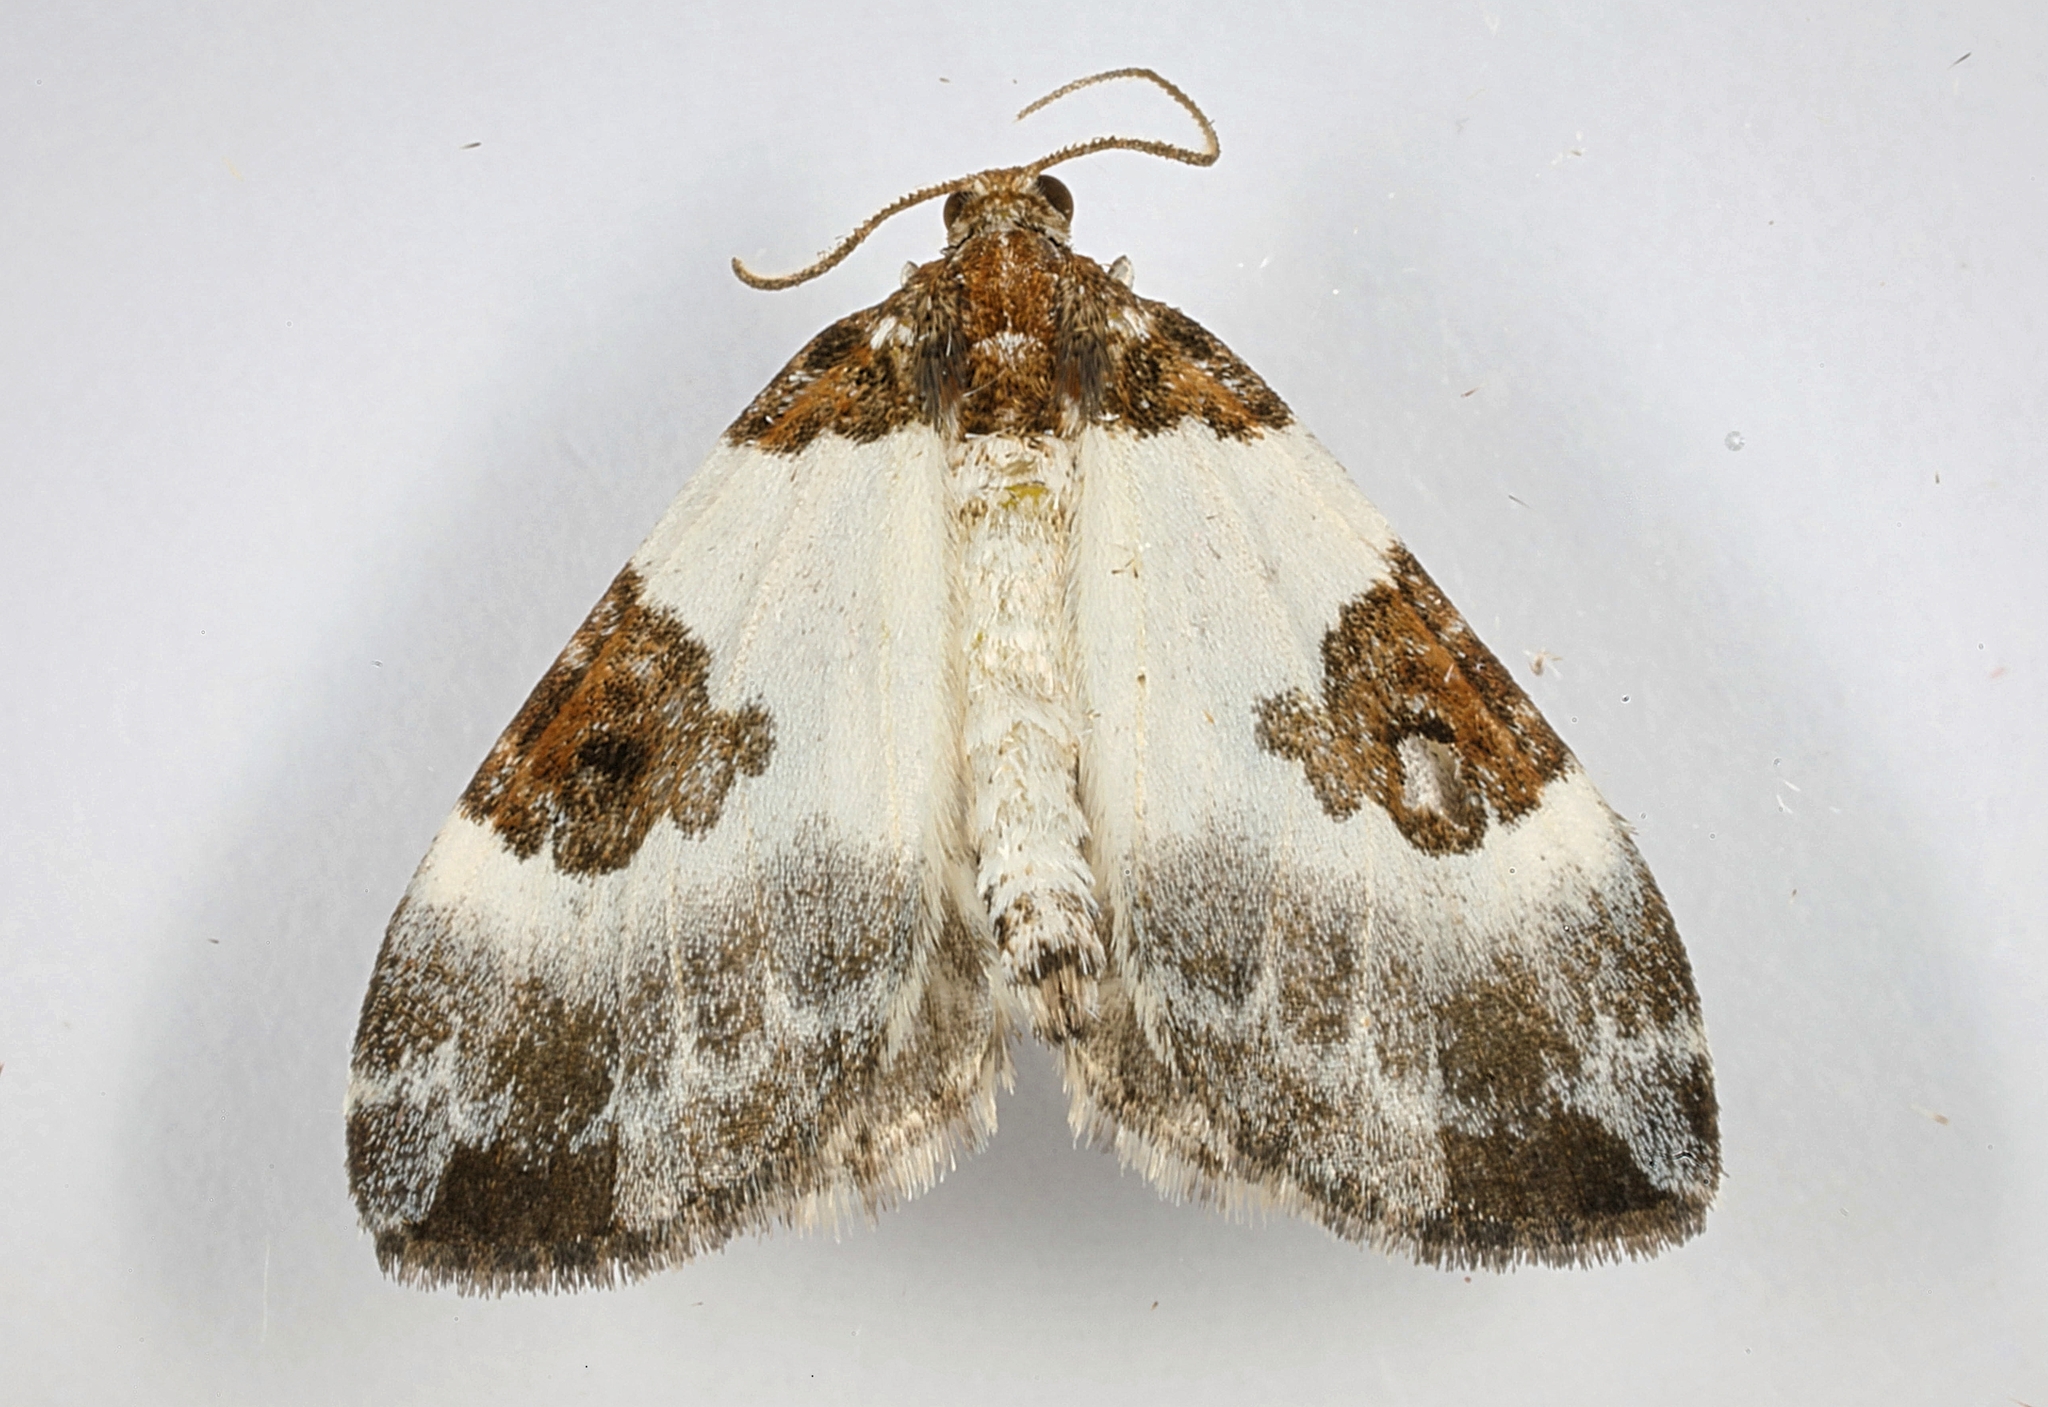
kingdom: Animalia
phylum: Arthropoda
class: Insecta
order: Lepidoptera
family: Geometridae
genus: Plemyria
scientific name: Plemyria rubiginata
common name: Blue-bordered carpet
